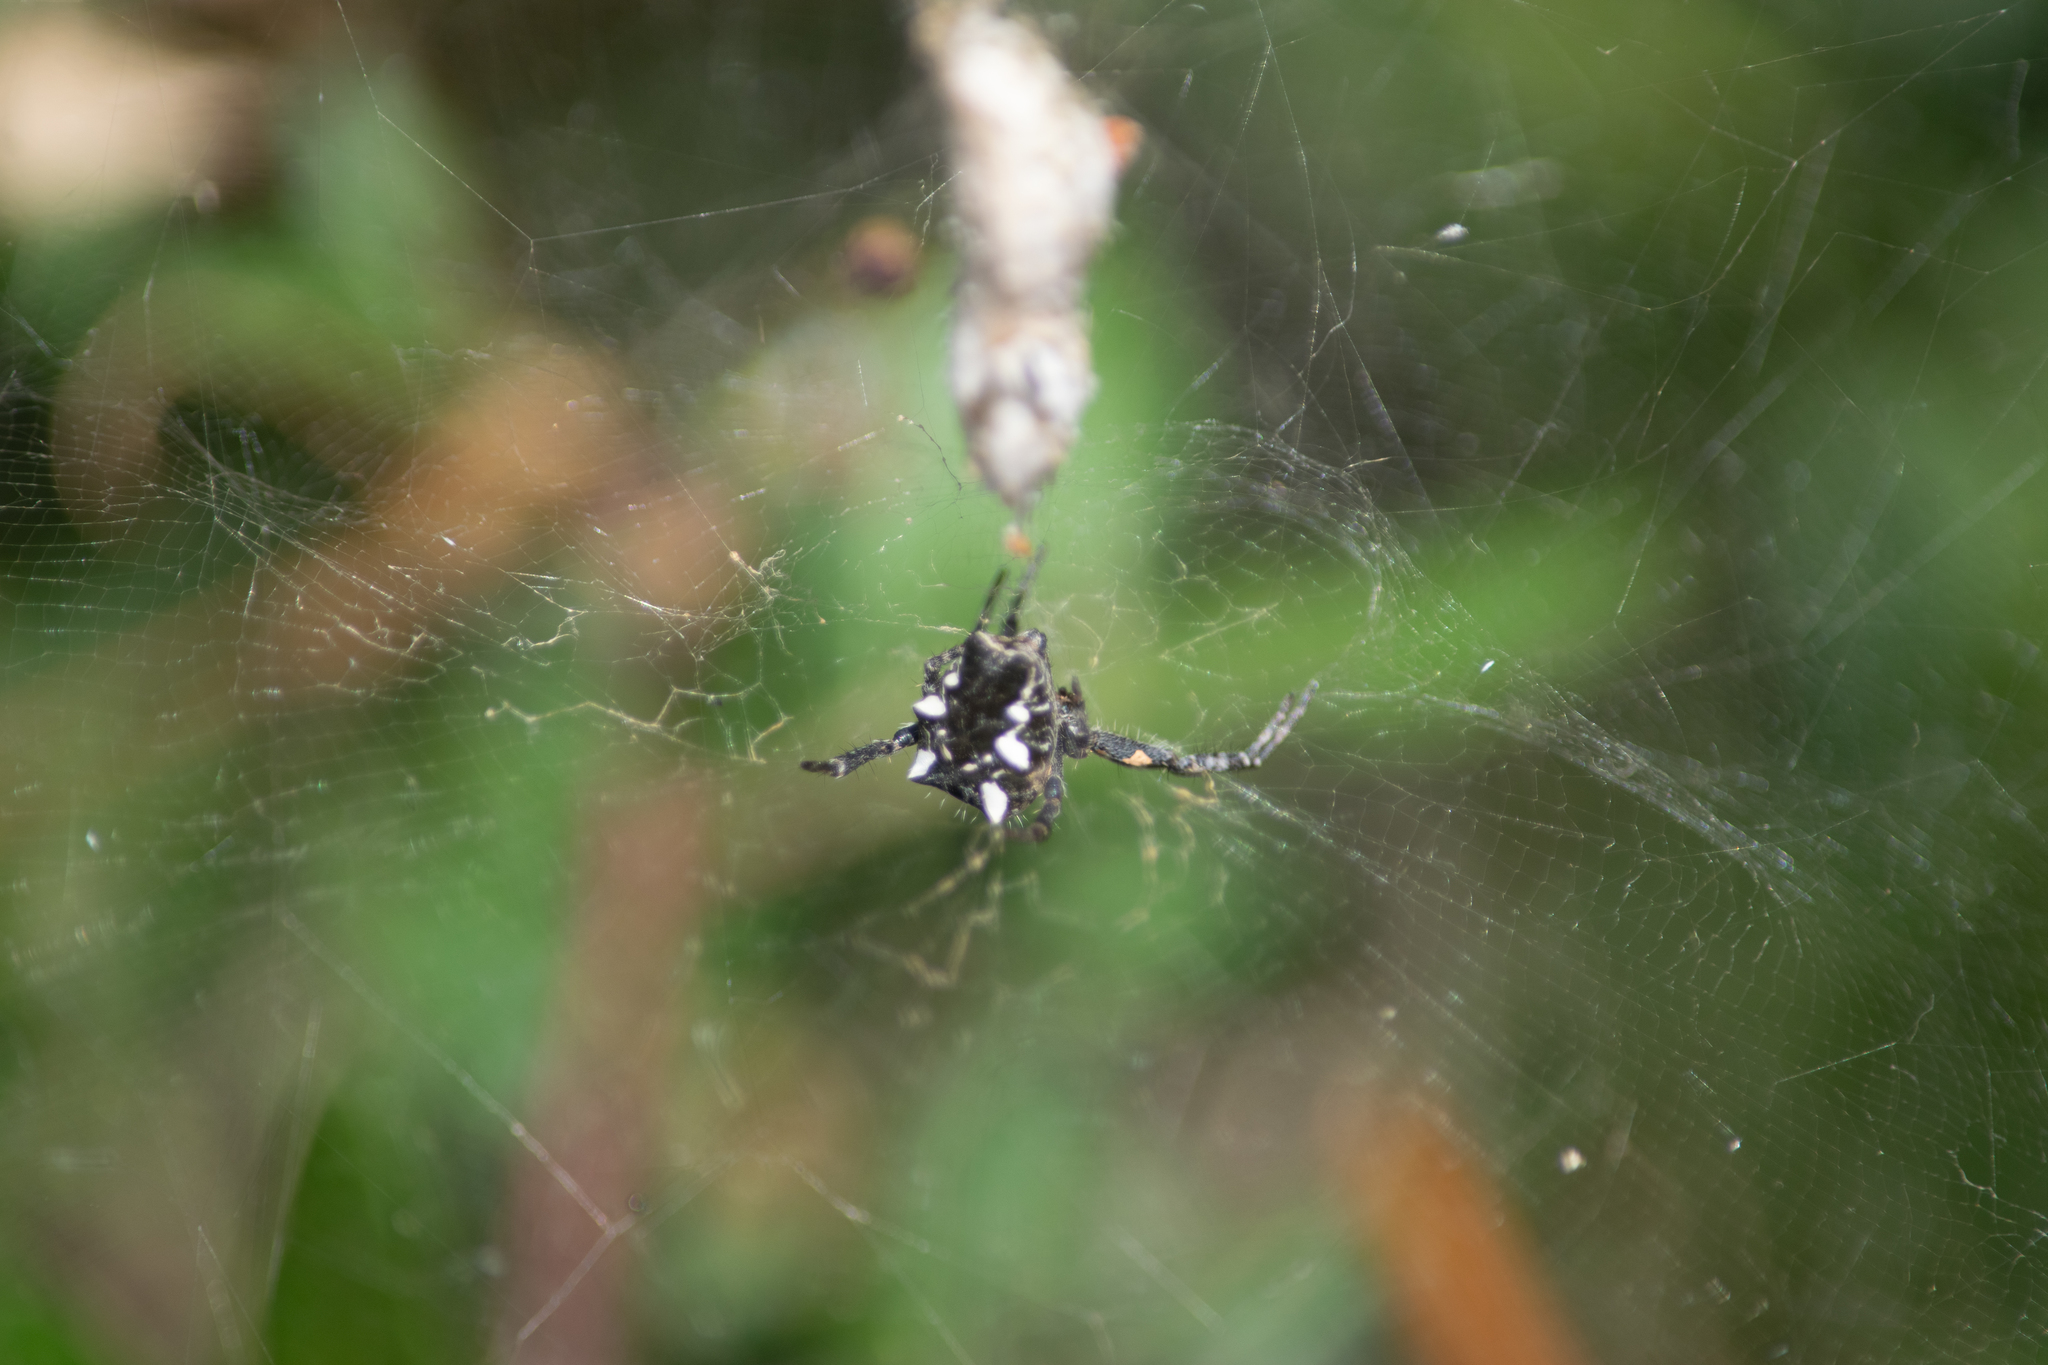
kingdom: Animalia
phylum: Arthropoda
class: Arachnida
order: Araneae
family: Araneidae
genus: Cyrtophora
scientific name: Cyrtophora citricola
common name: Orb weavers
